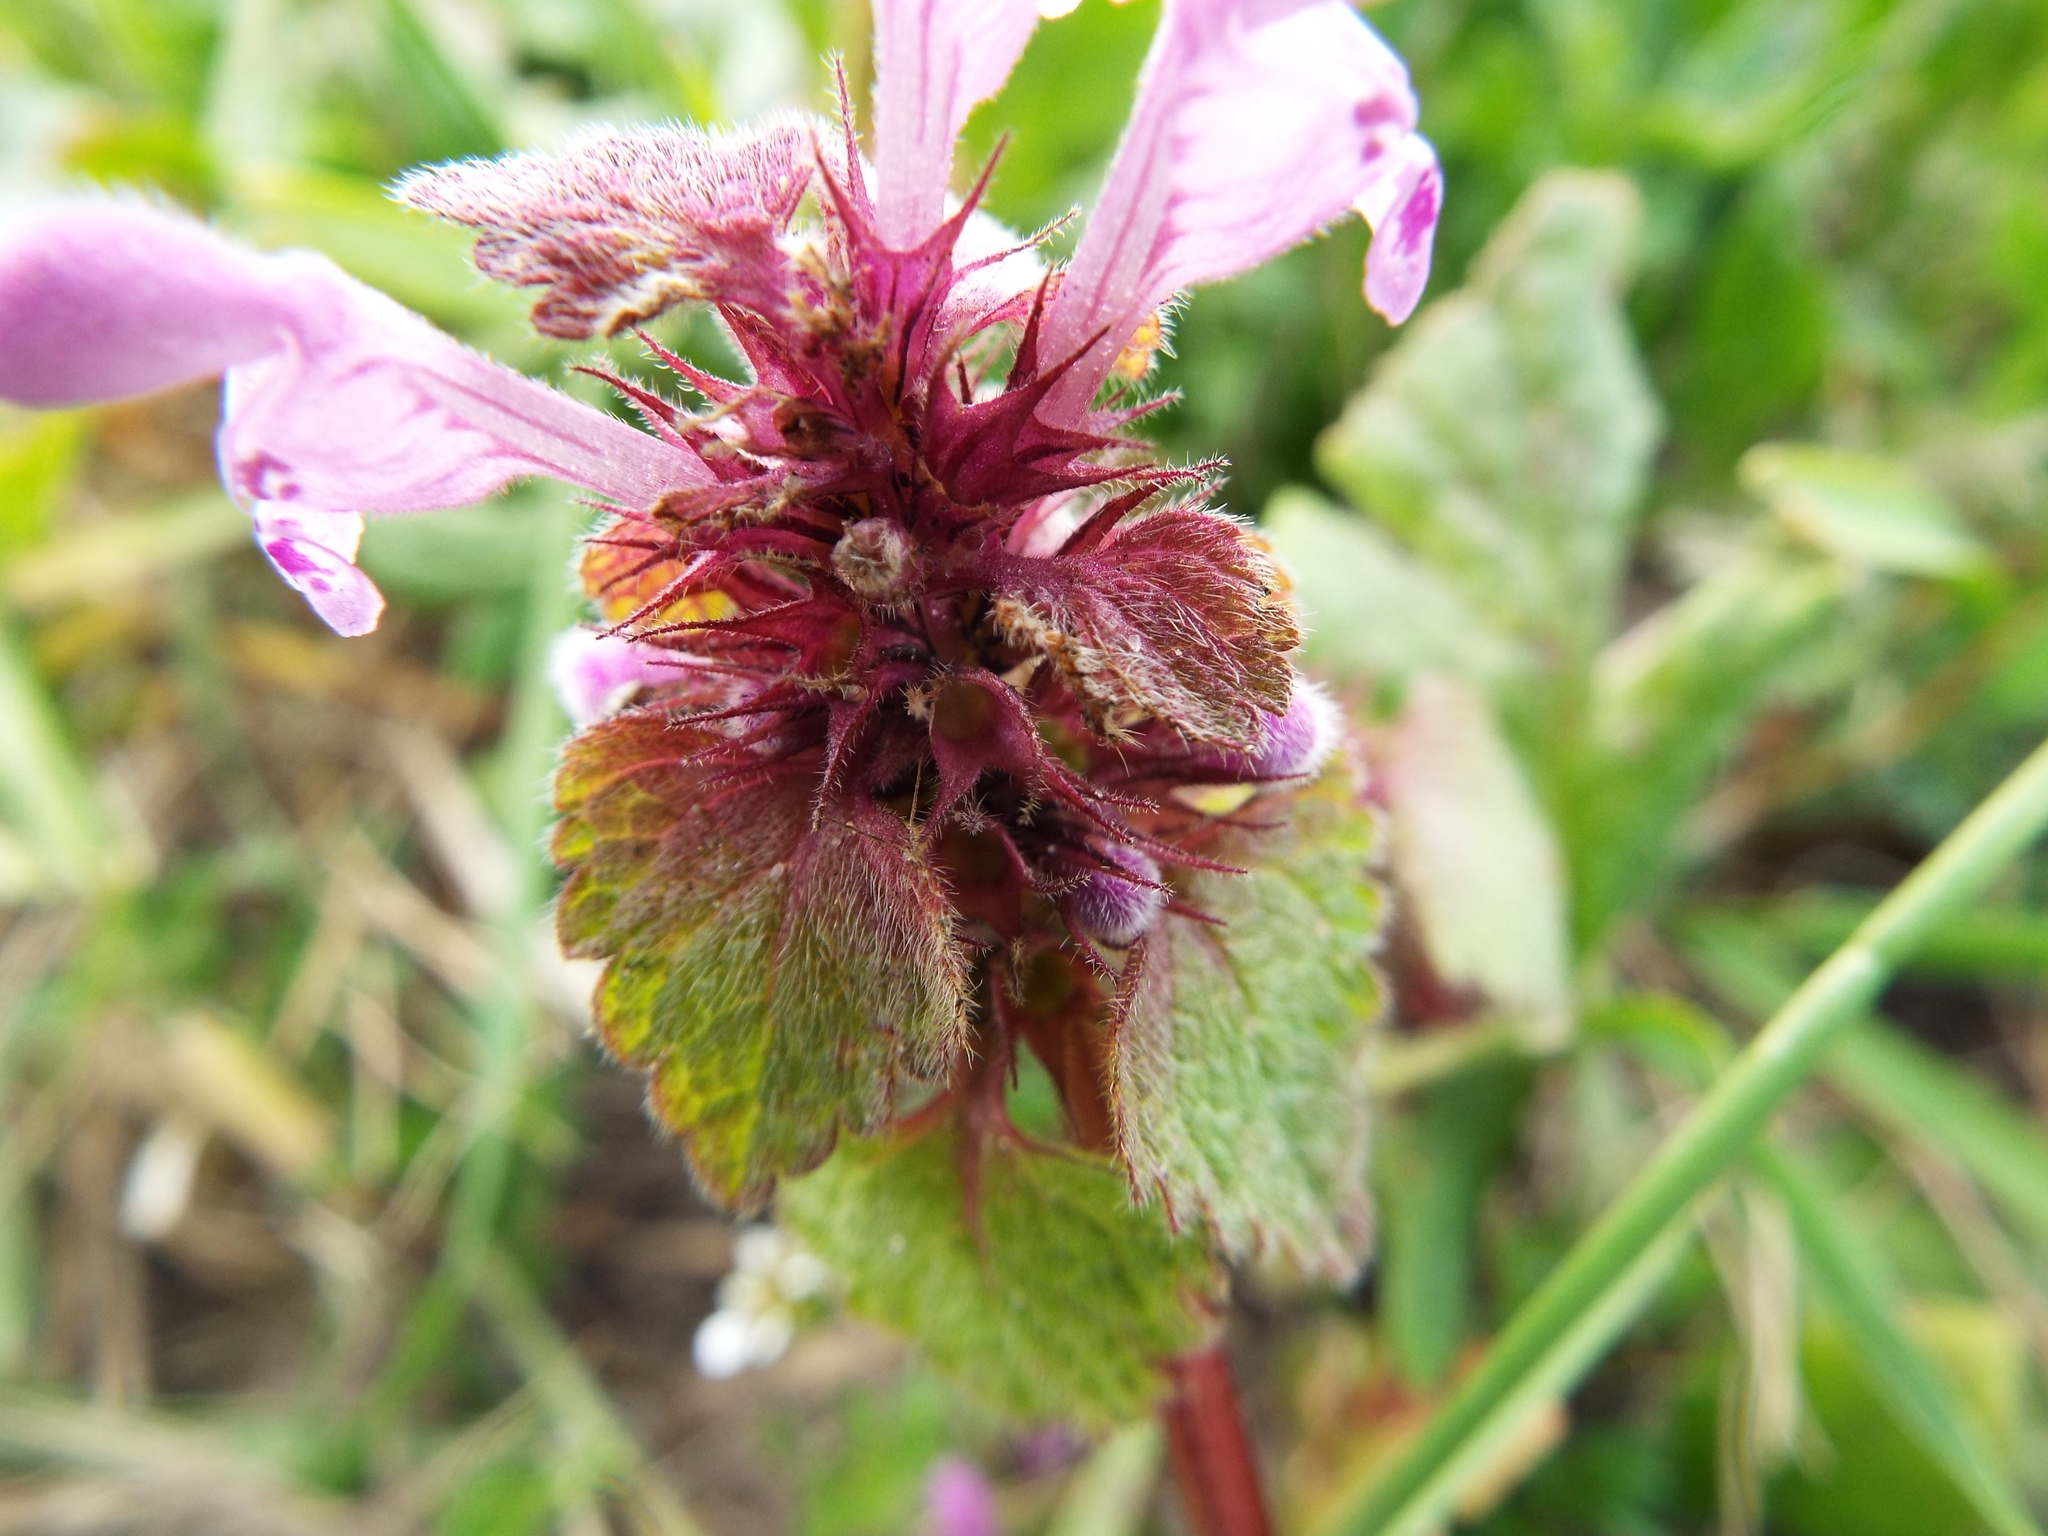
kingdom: Plantae
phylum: Tracheophyta
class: Magnoliopsida
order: Lamiales
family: Lamiaceae
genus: Lamium
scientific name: Lamium purpureum
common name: Red dead-nettle
